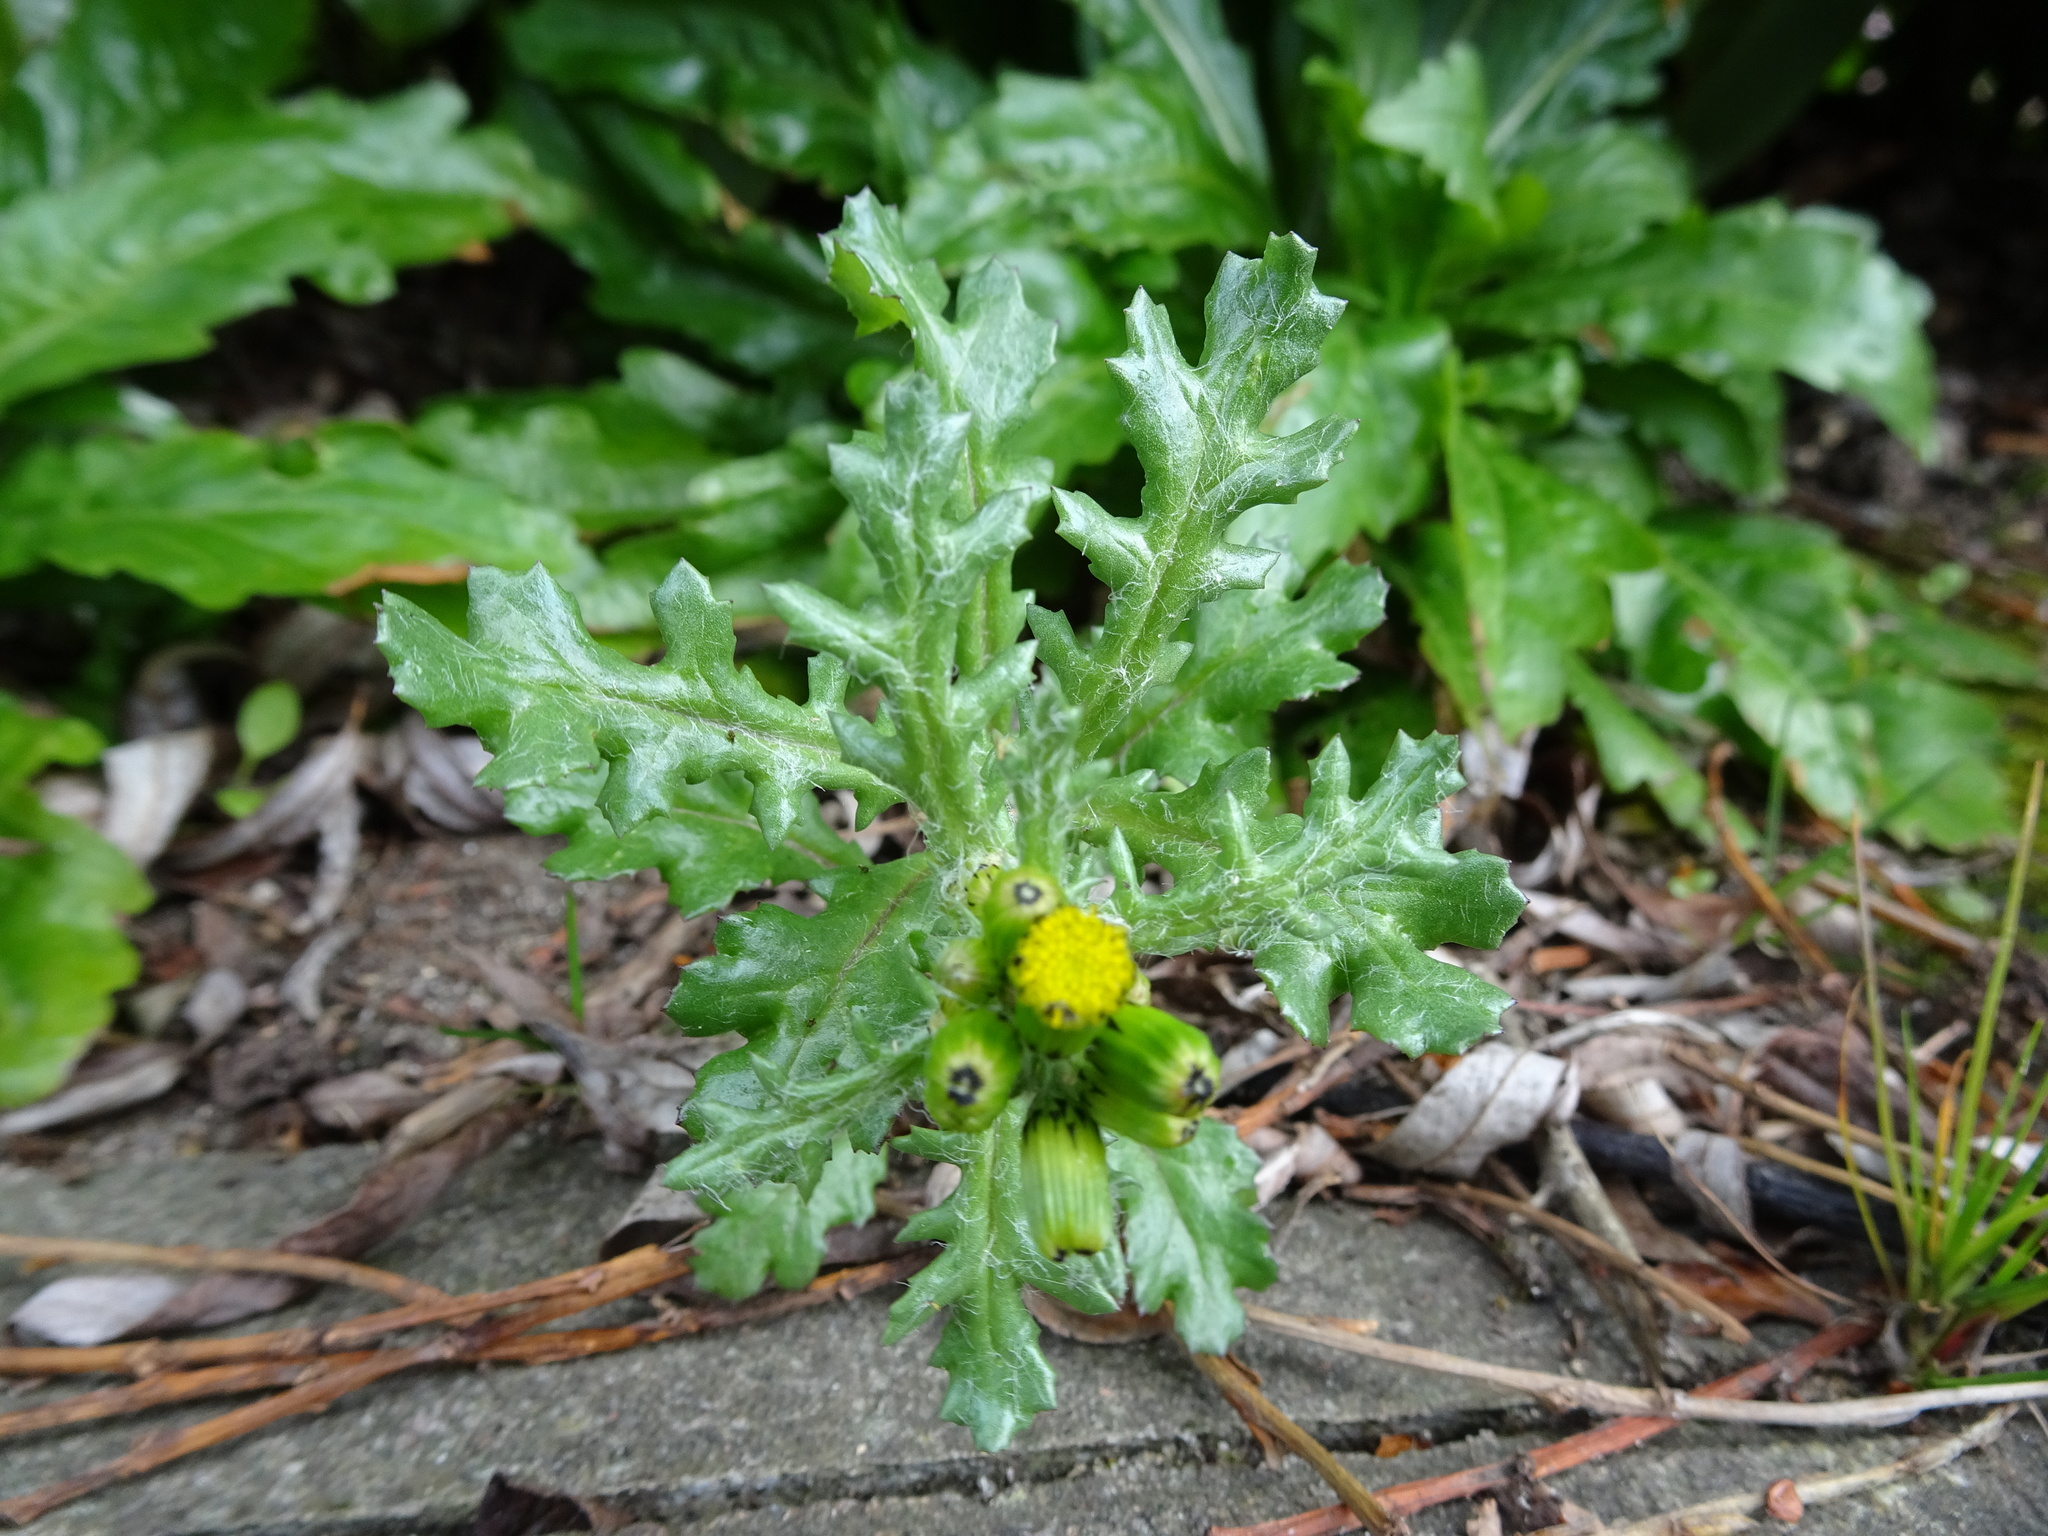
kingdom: Plantae
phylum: Tracheophyta
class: Magnoliopsida
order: Asterales
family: Asteraceae
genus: Senecio
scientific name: Senecio vulgaris
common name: Old-man-in-the-spring
